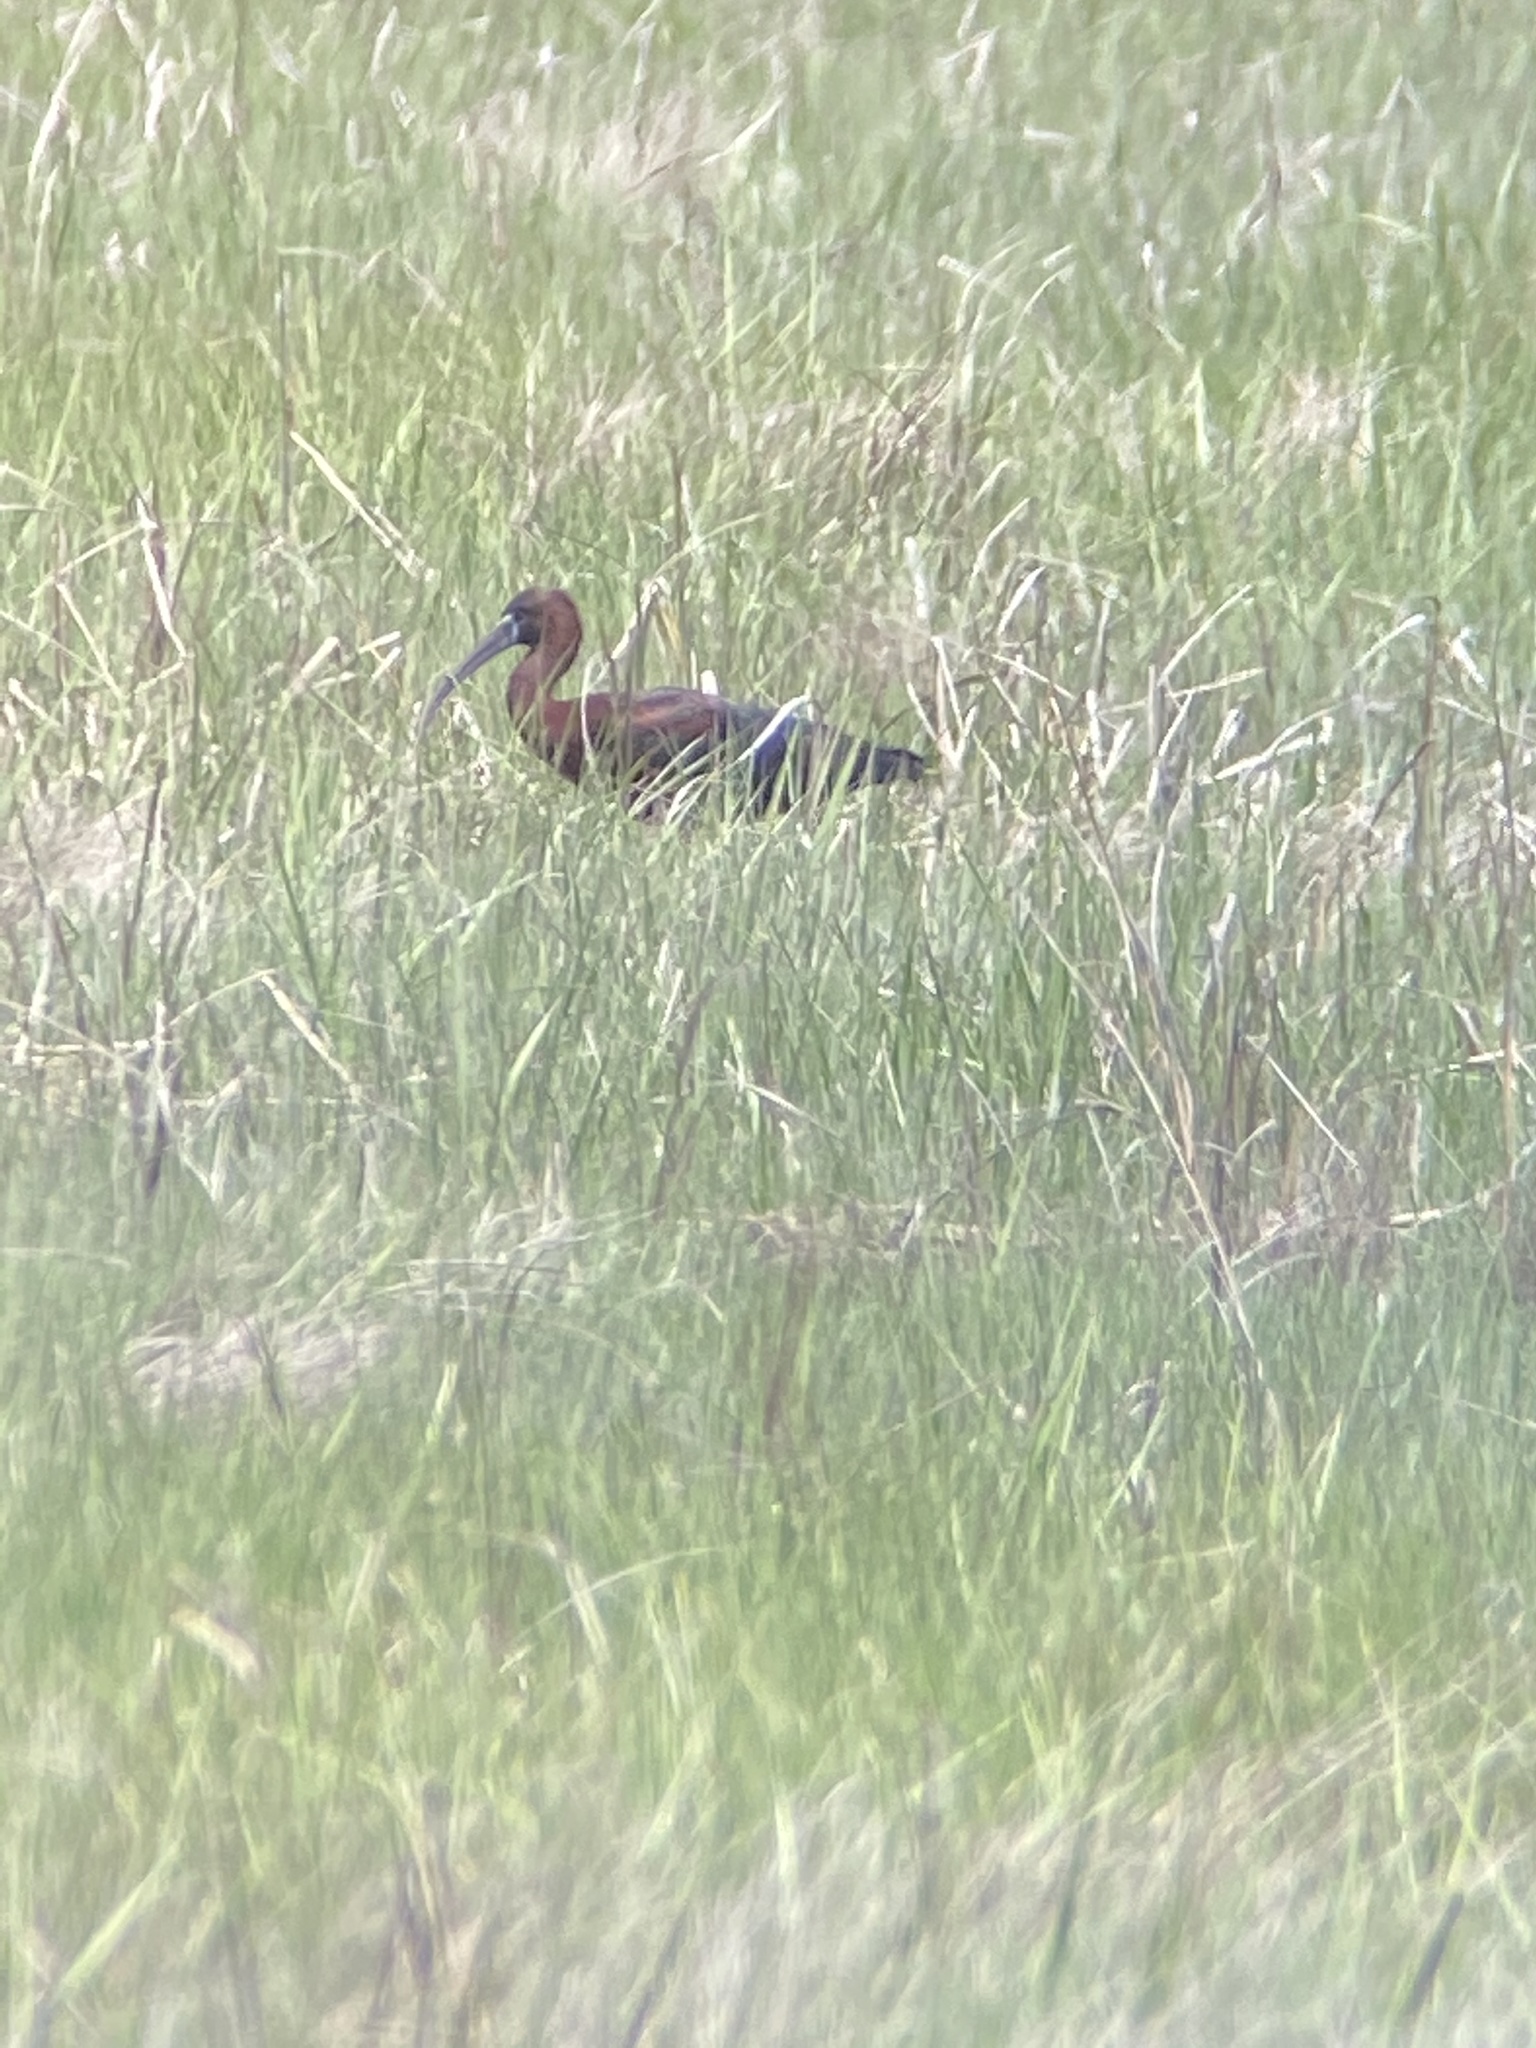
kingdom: Animalia
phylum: Chordata
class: Aves
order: Pelecaniformes
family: Threskiornithidae
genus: Plegadis
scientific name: Plegadis falcinellus
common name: Glossy ibis
